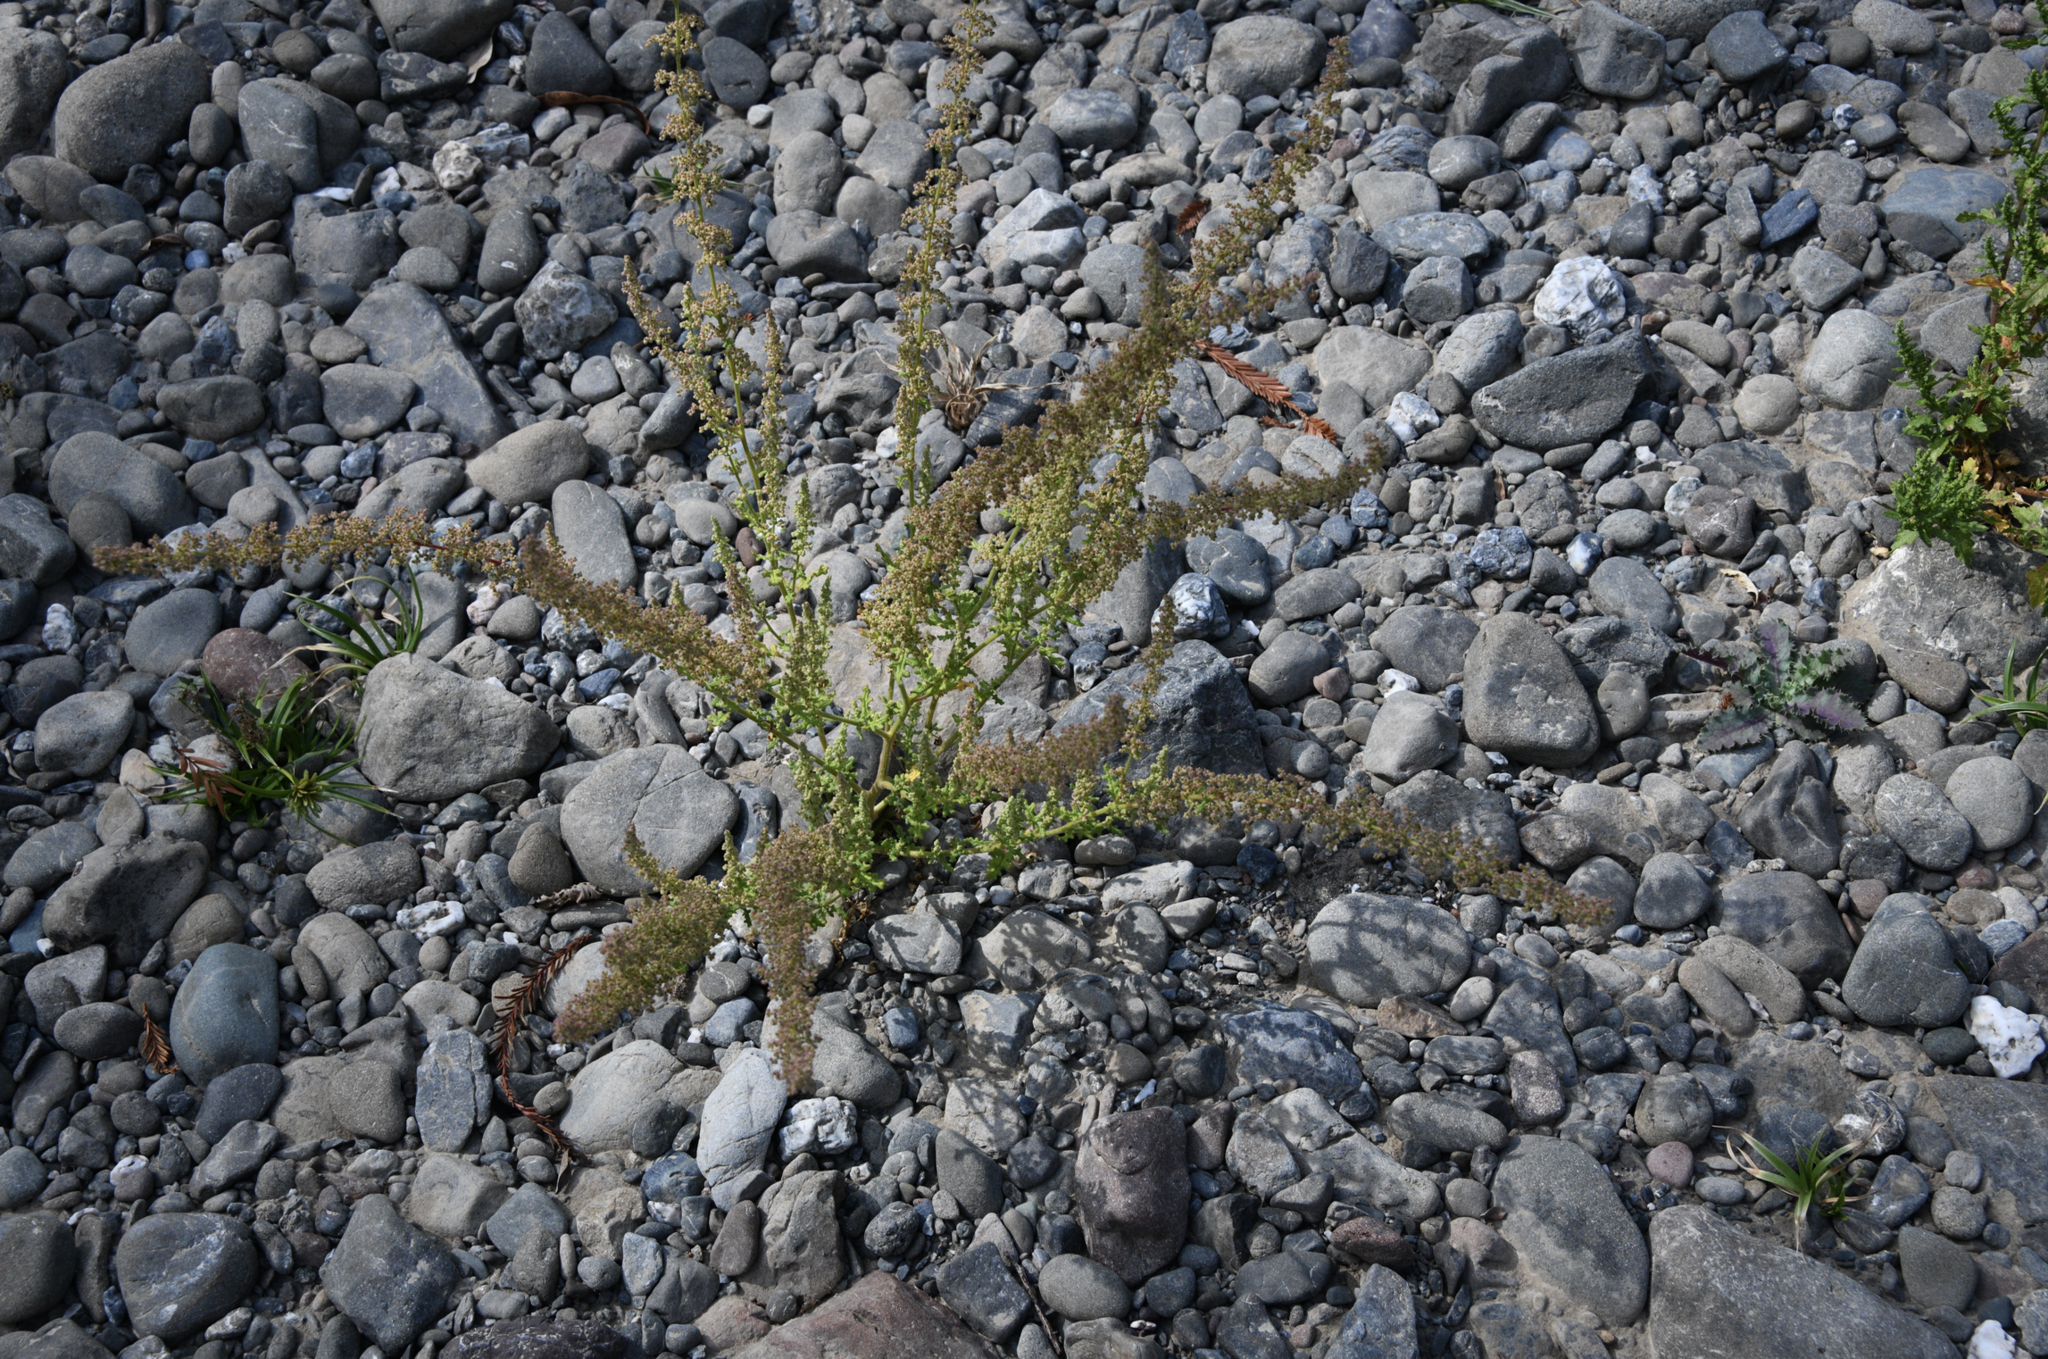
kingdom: Plantae
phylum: Tracheophyta
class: Magnoliopsida
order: Caryophyllales
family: Amaranthaceae
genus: Dysphania
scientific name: Dysphania botrys
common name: Feather-geranium
